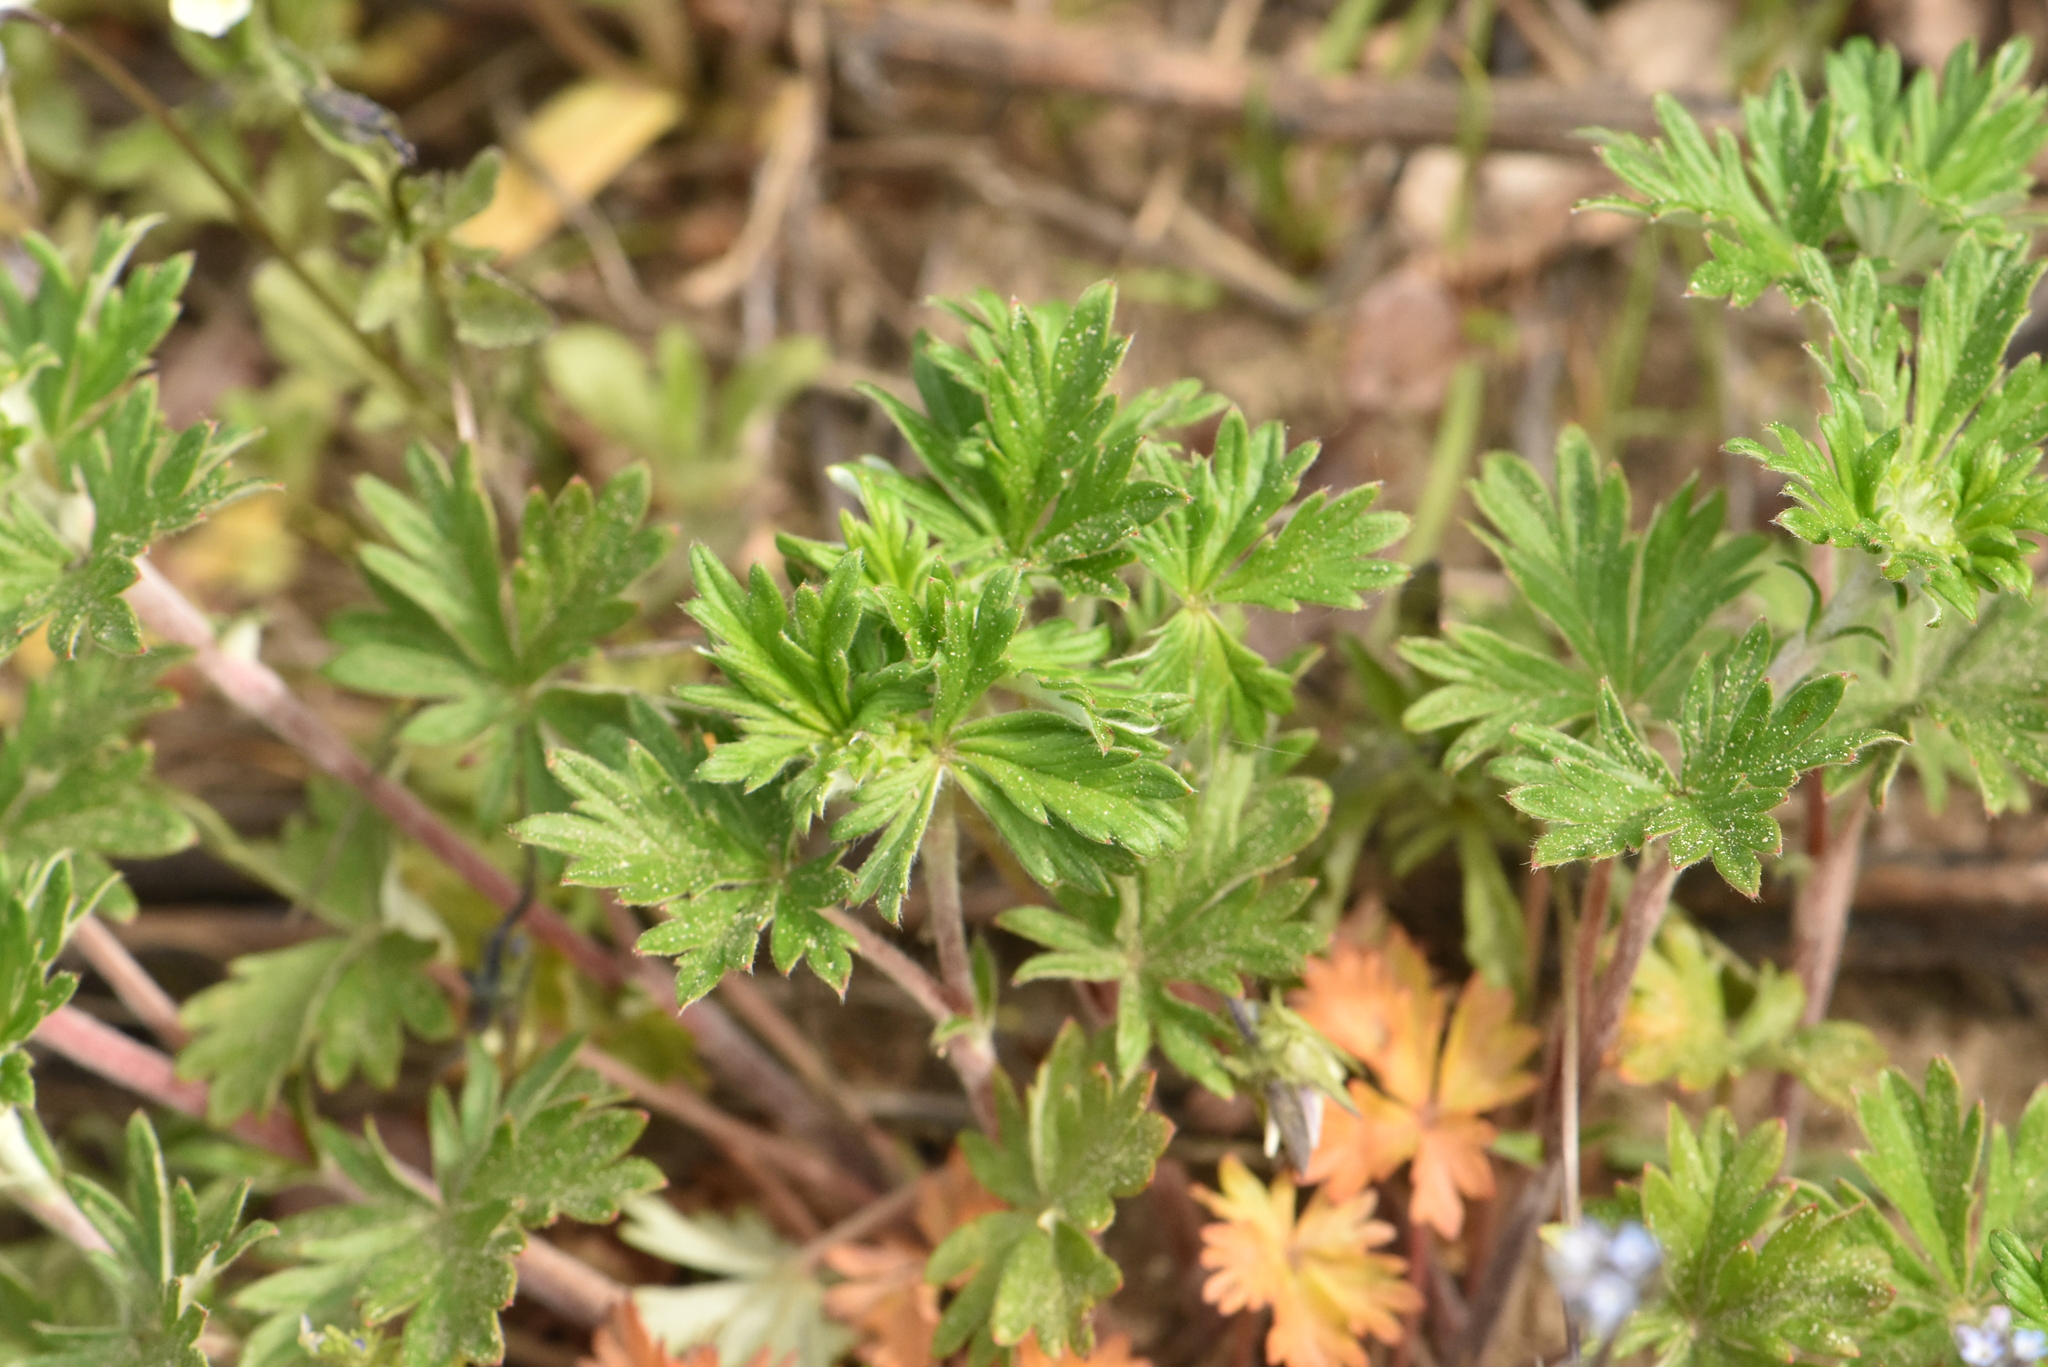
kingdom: Plantae
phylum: Tracheophyta
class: Magnoliopsida
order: Rosales
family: Rosaceae
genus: Potentilla
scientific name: Potentilla argentea
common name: Hoary cinquefoil
